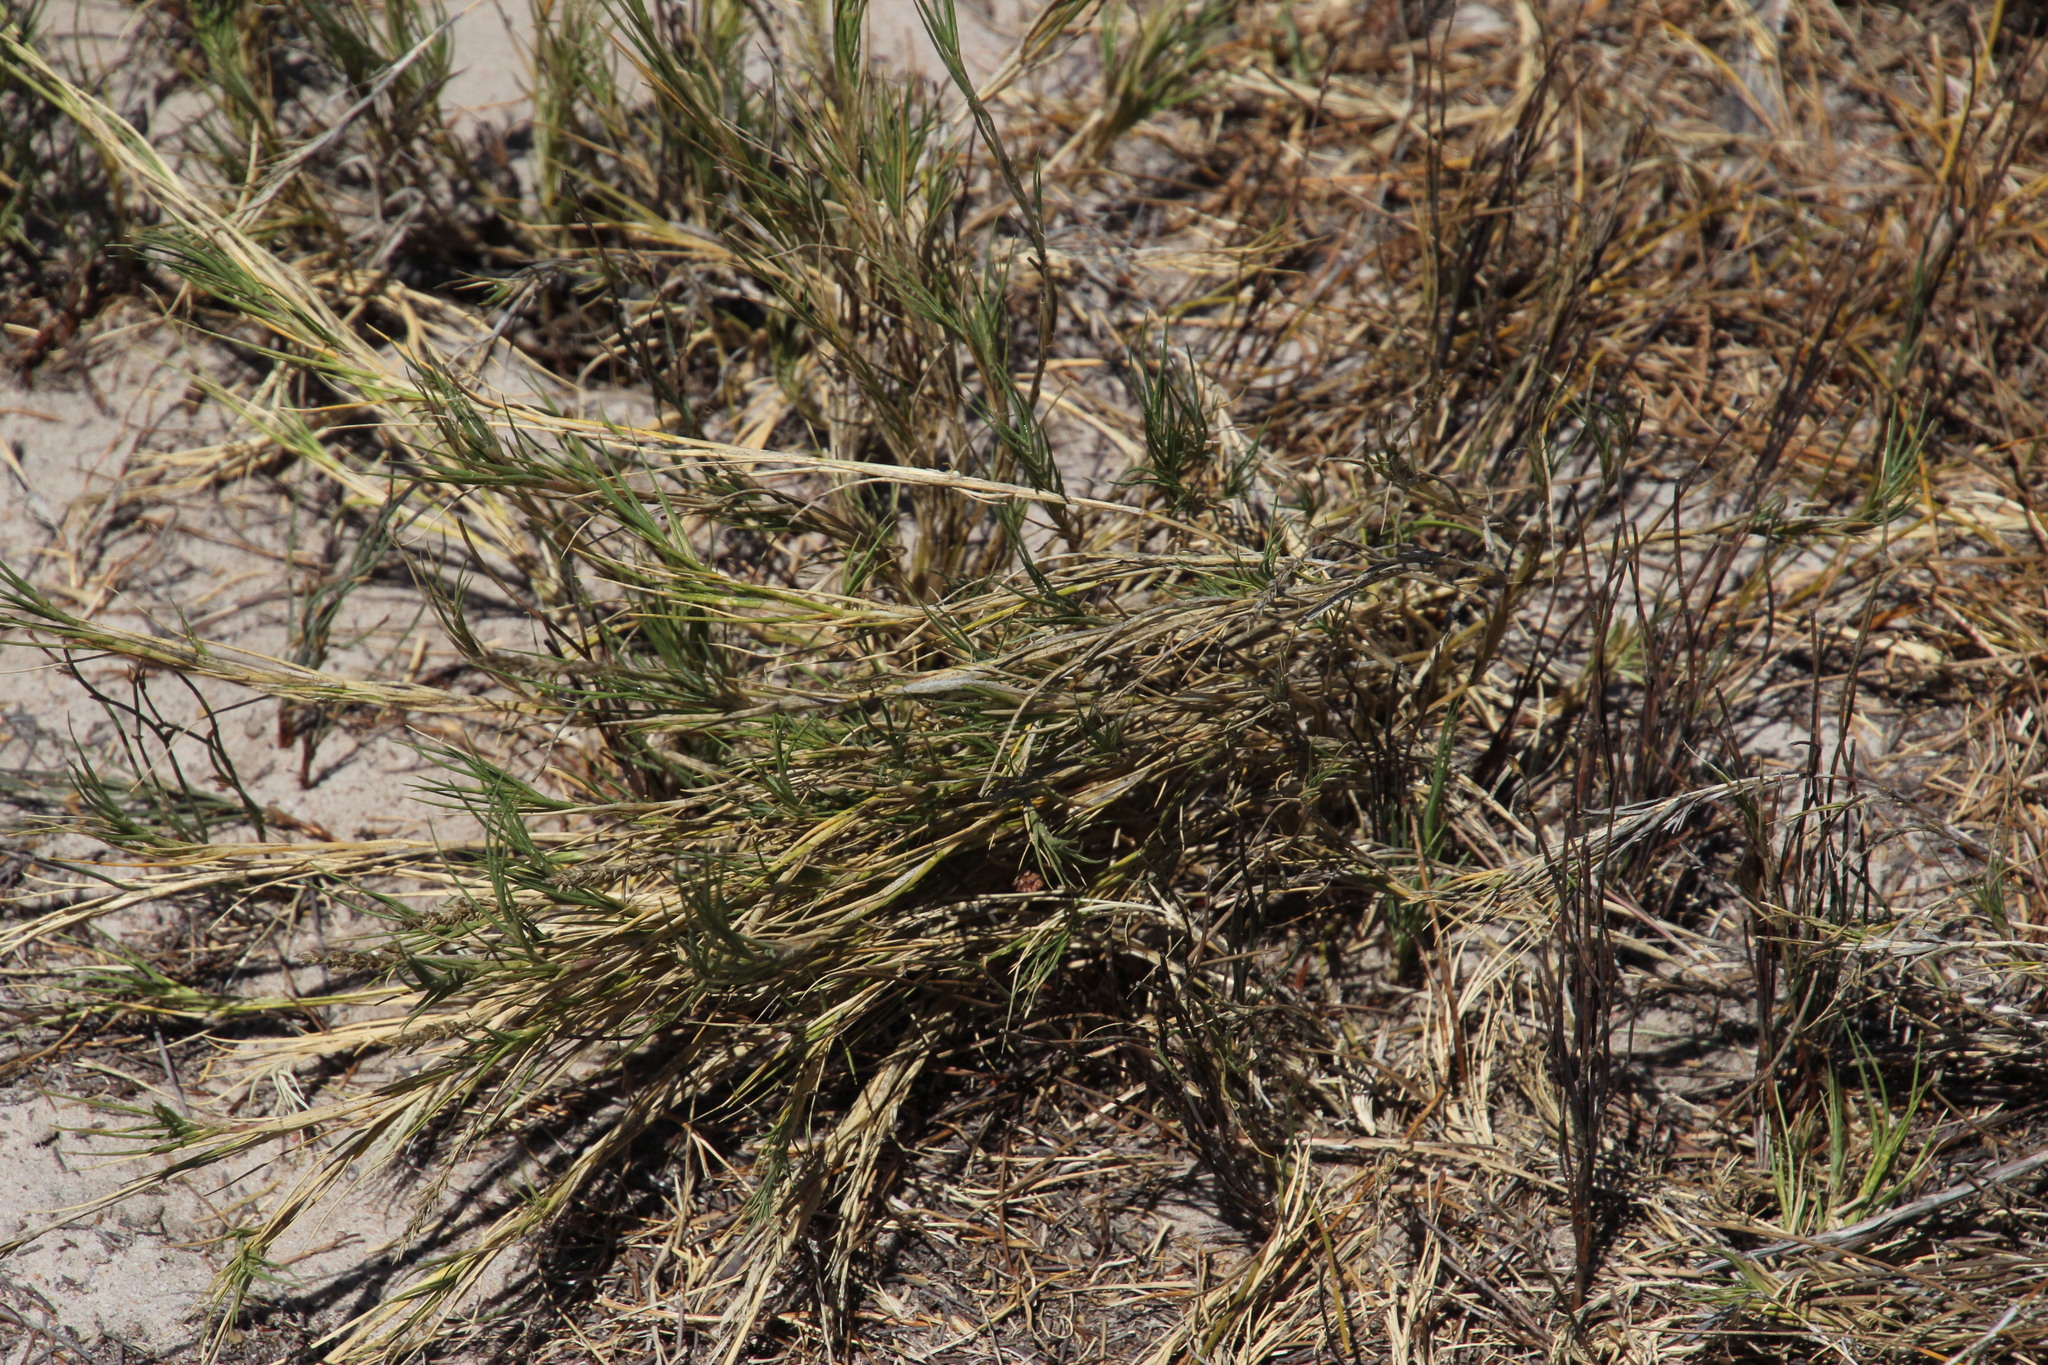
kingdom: Plantae
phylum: Tracheophyta
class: Liliopsida
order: Poales
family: Poaceae
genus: Sporobolus
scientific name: Sporobolus virginicus
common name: Beach dropseed
